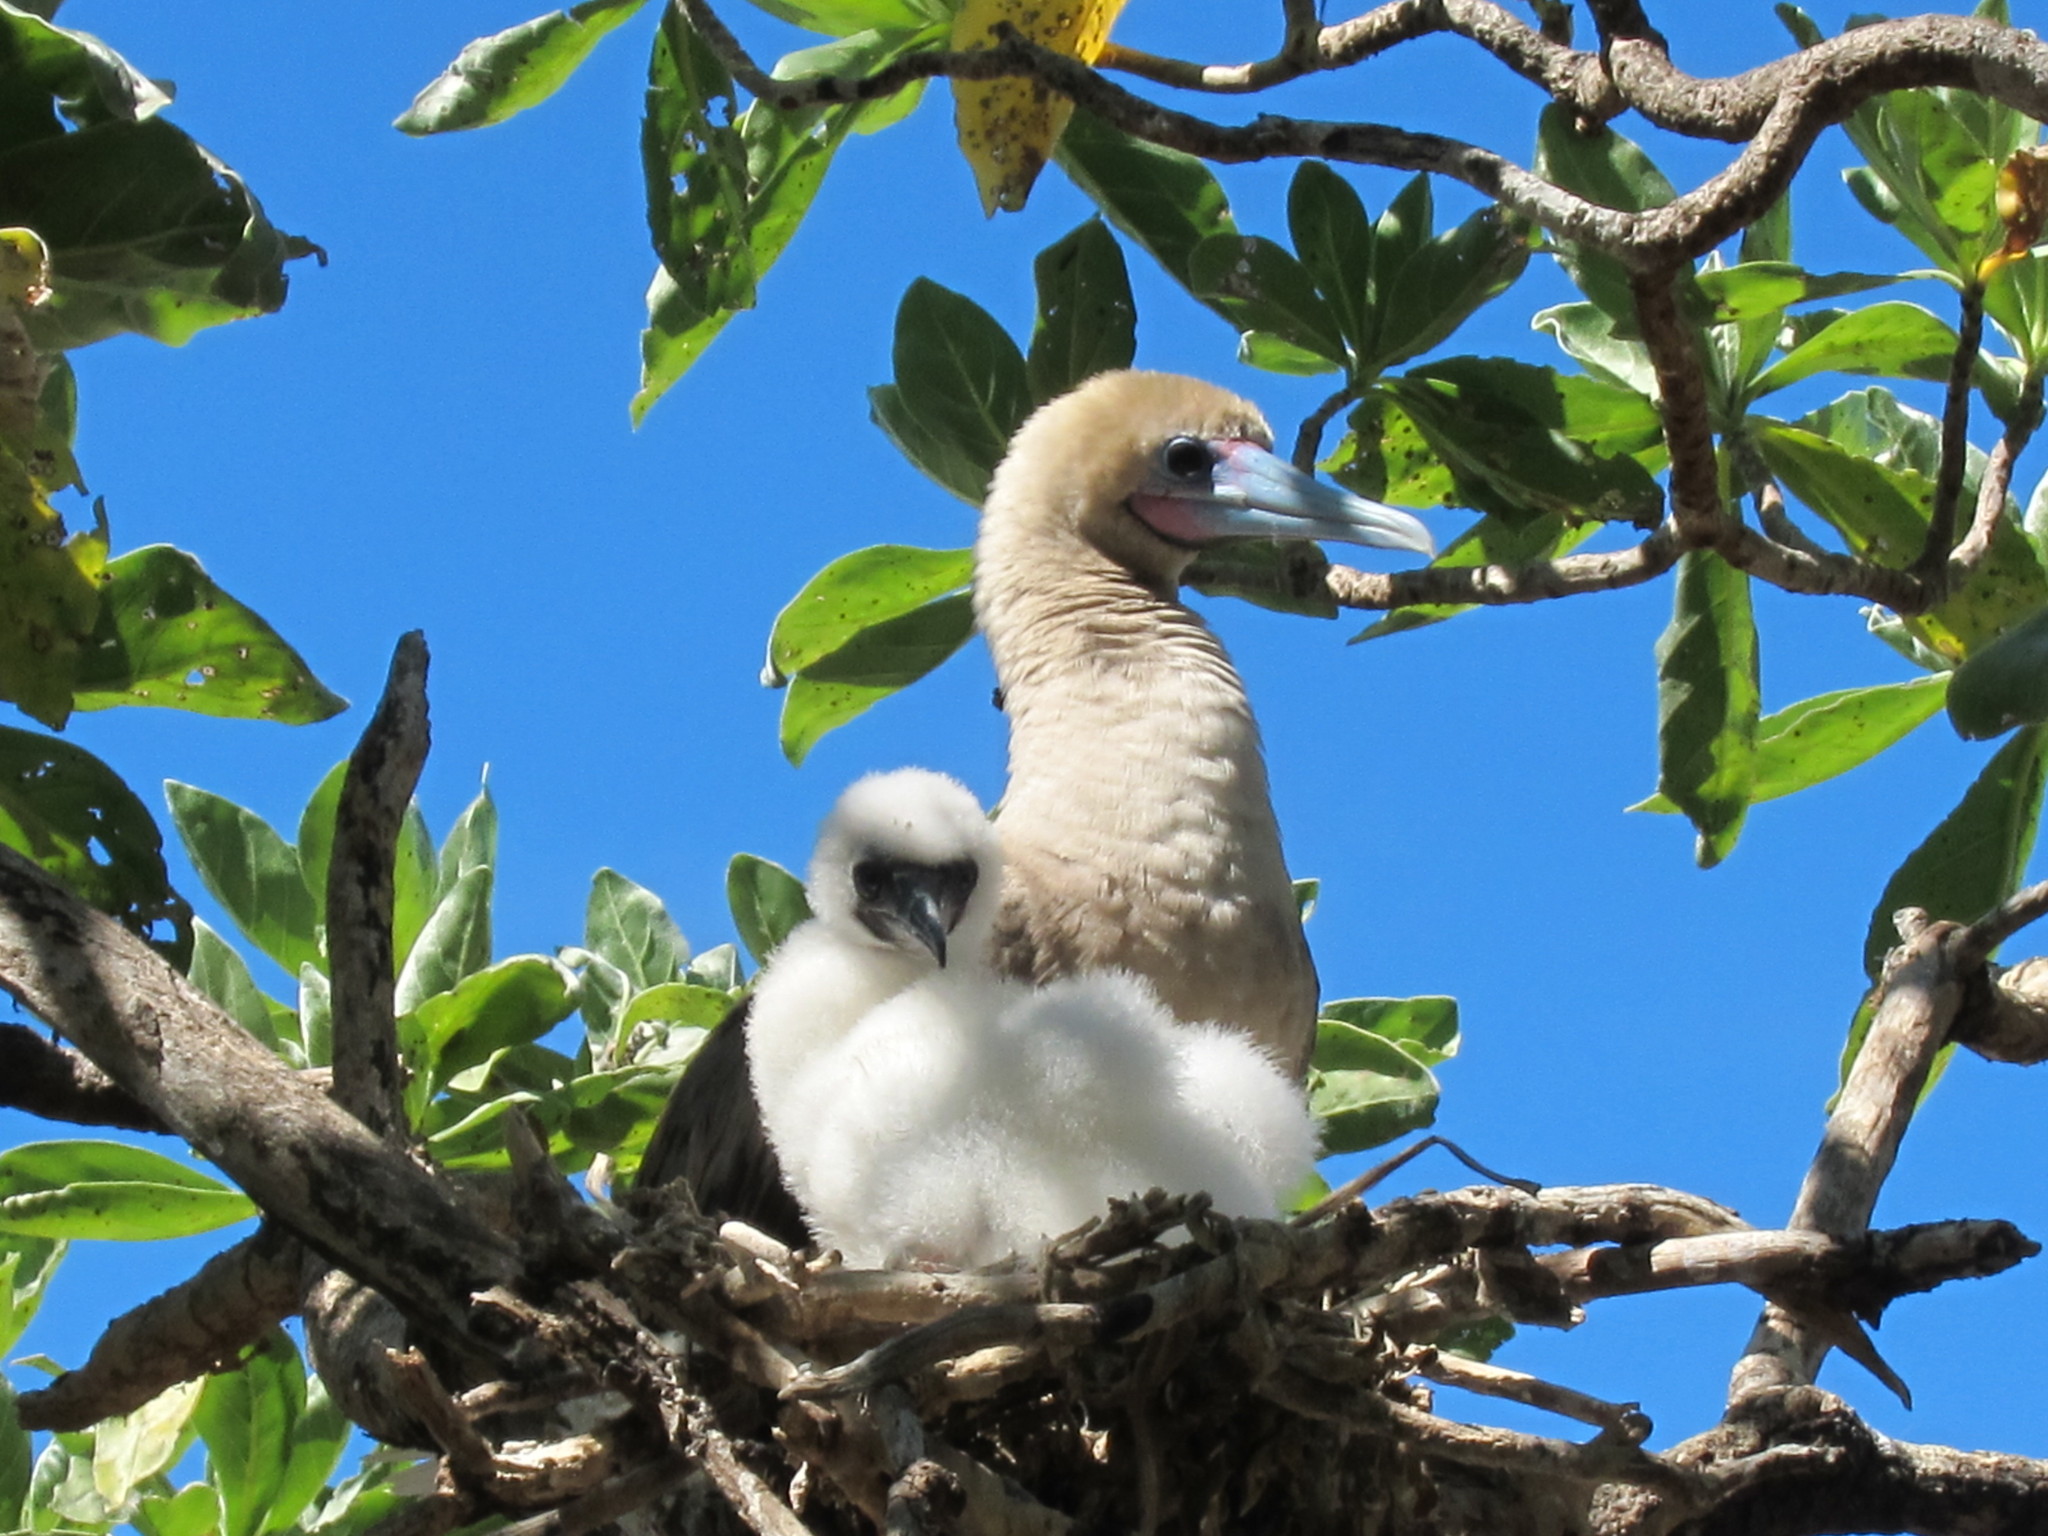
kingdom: Animalia
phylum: Chordata
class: Aves
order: Suliformes
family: Sulidae
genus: Sula
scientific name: Sula sula
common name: Red-footed booby
